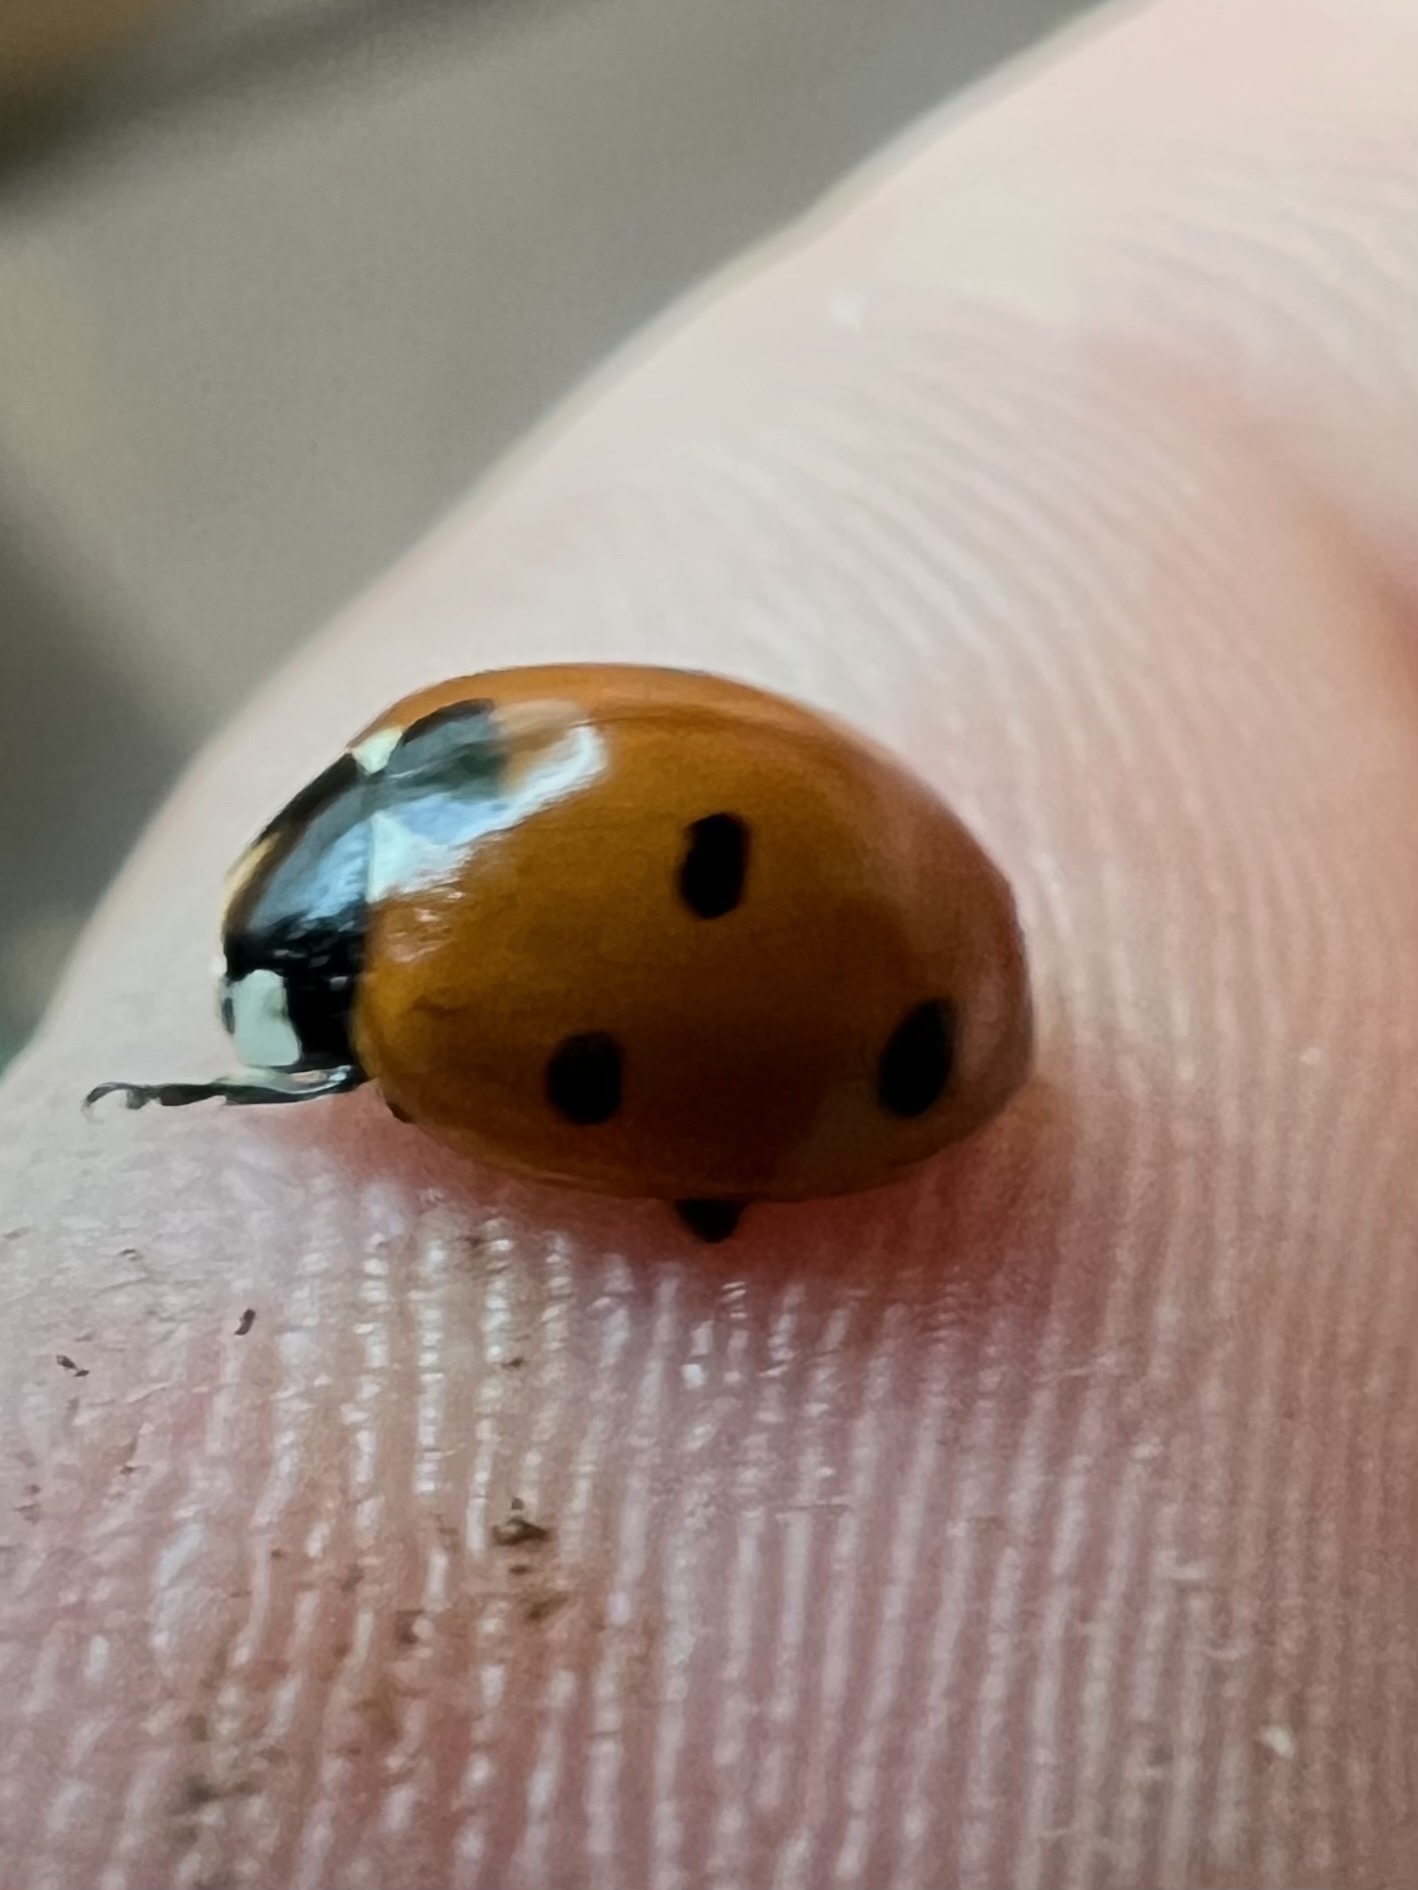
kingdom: Animalia
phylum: Arthropoda
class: Insecta
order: Coleoptera
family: Coccinellidae
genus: Coccinella
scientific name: Coccinella septempunctata
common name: Sevenspotted lady beetle
